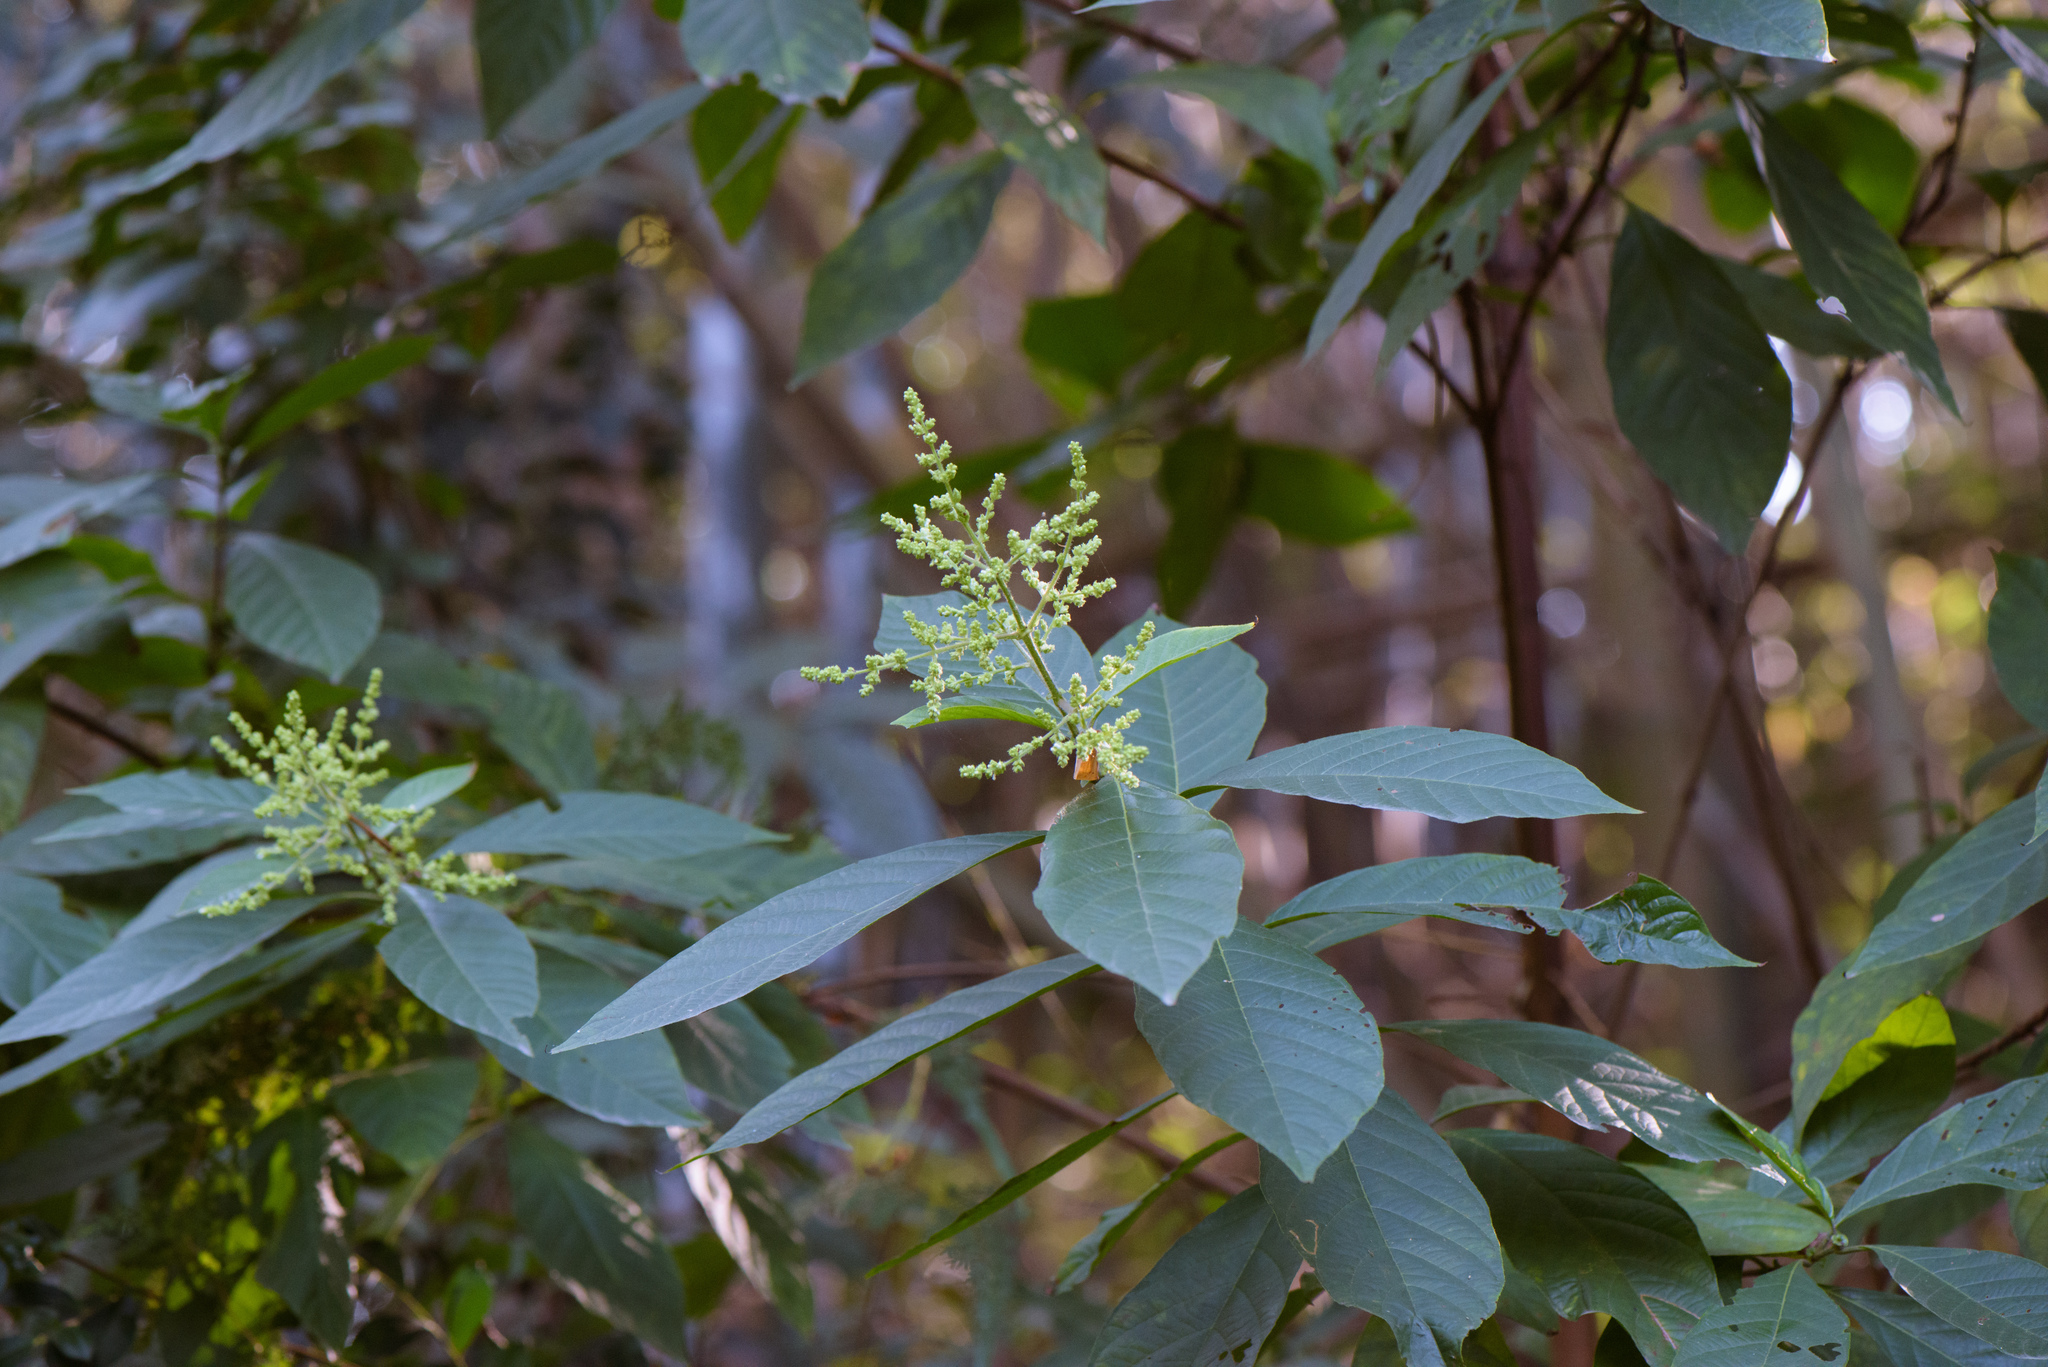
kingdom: Plantae
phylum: Tracheophyta
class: Magnoliopsida
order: Gentianales
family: Rubiaceae
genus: Wendlandia
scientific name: Wendlandia uvariifolia
